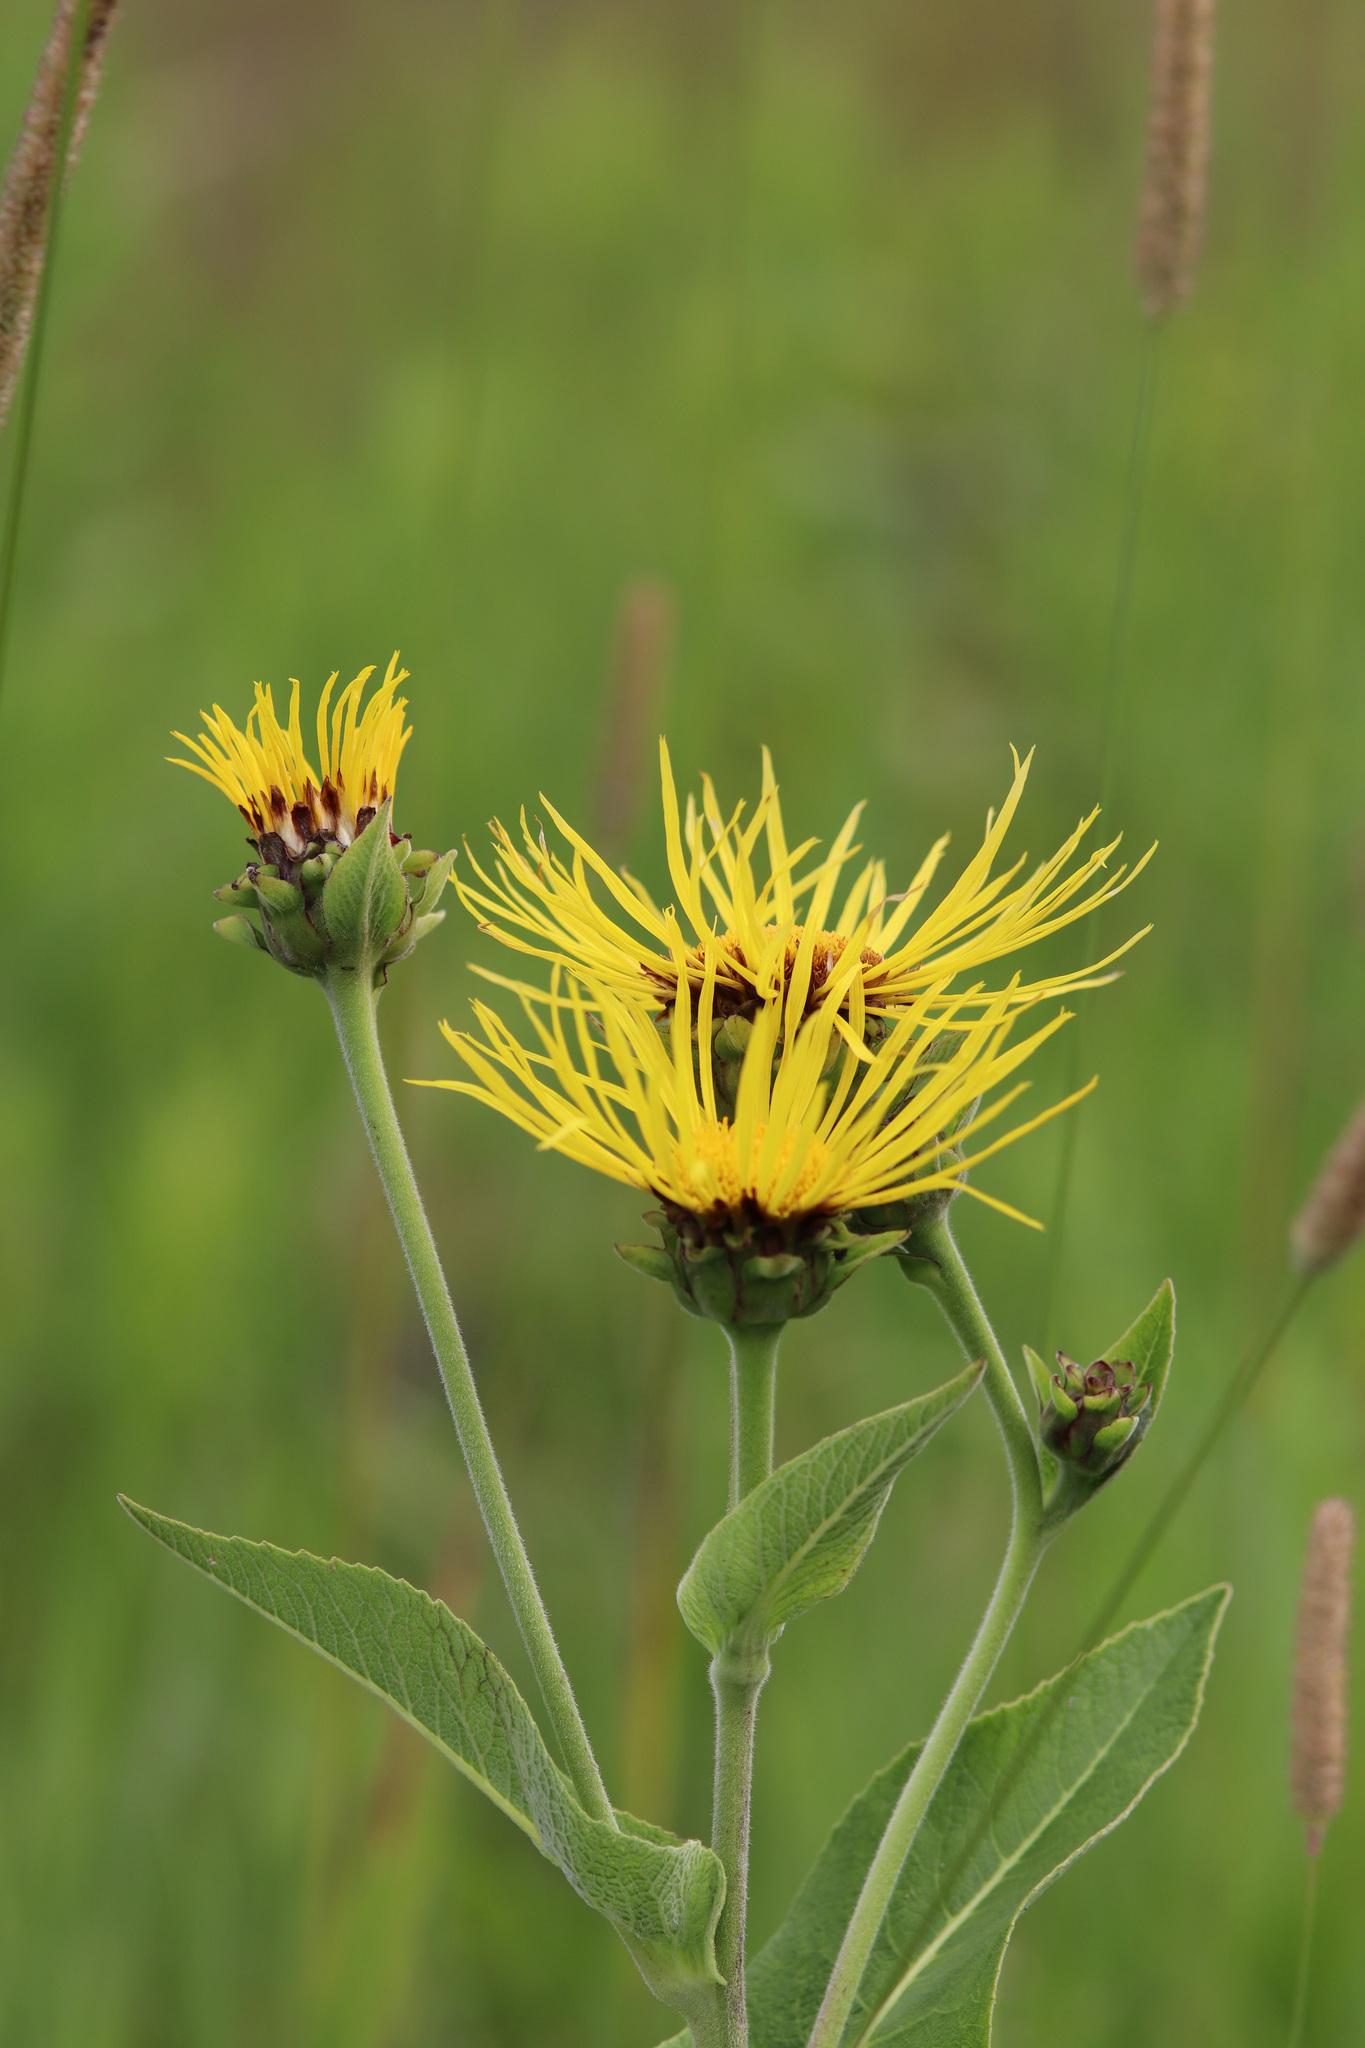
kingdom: Plantae
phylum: Tracheophyta
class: Magnoliopsida
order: Asterales
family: Asteraceae
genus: Inula
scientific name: Inula helenium
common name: Elecampane
